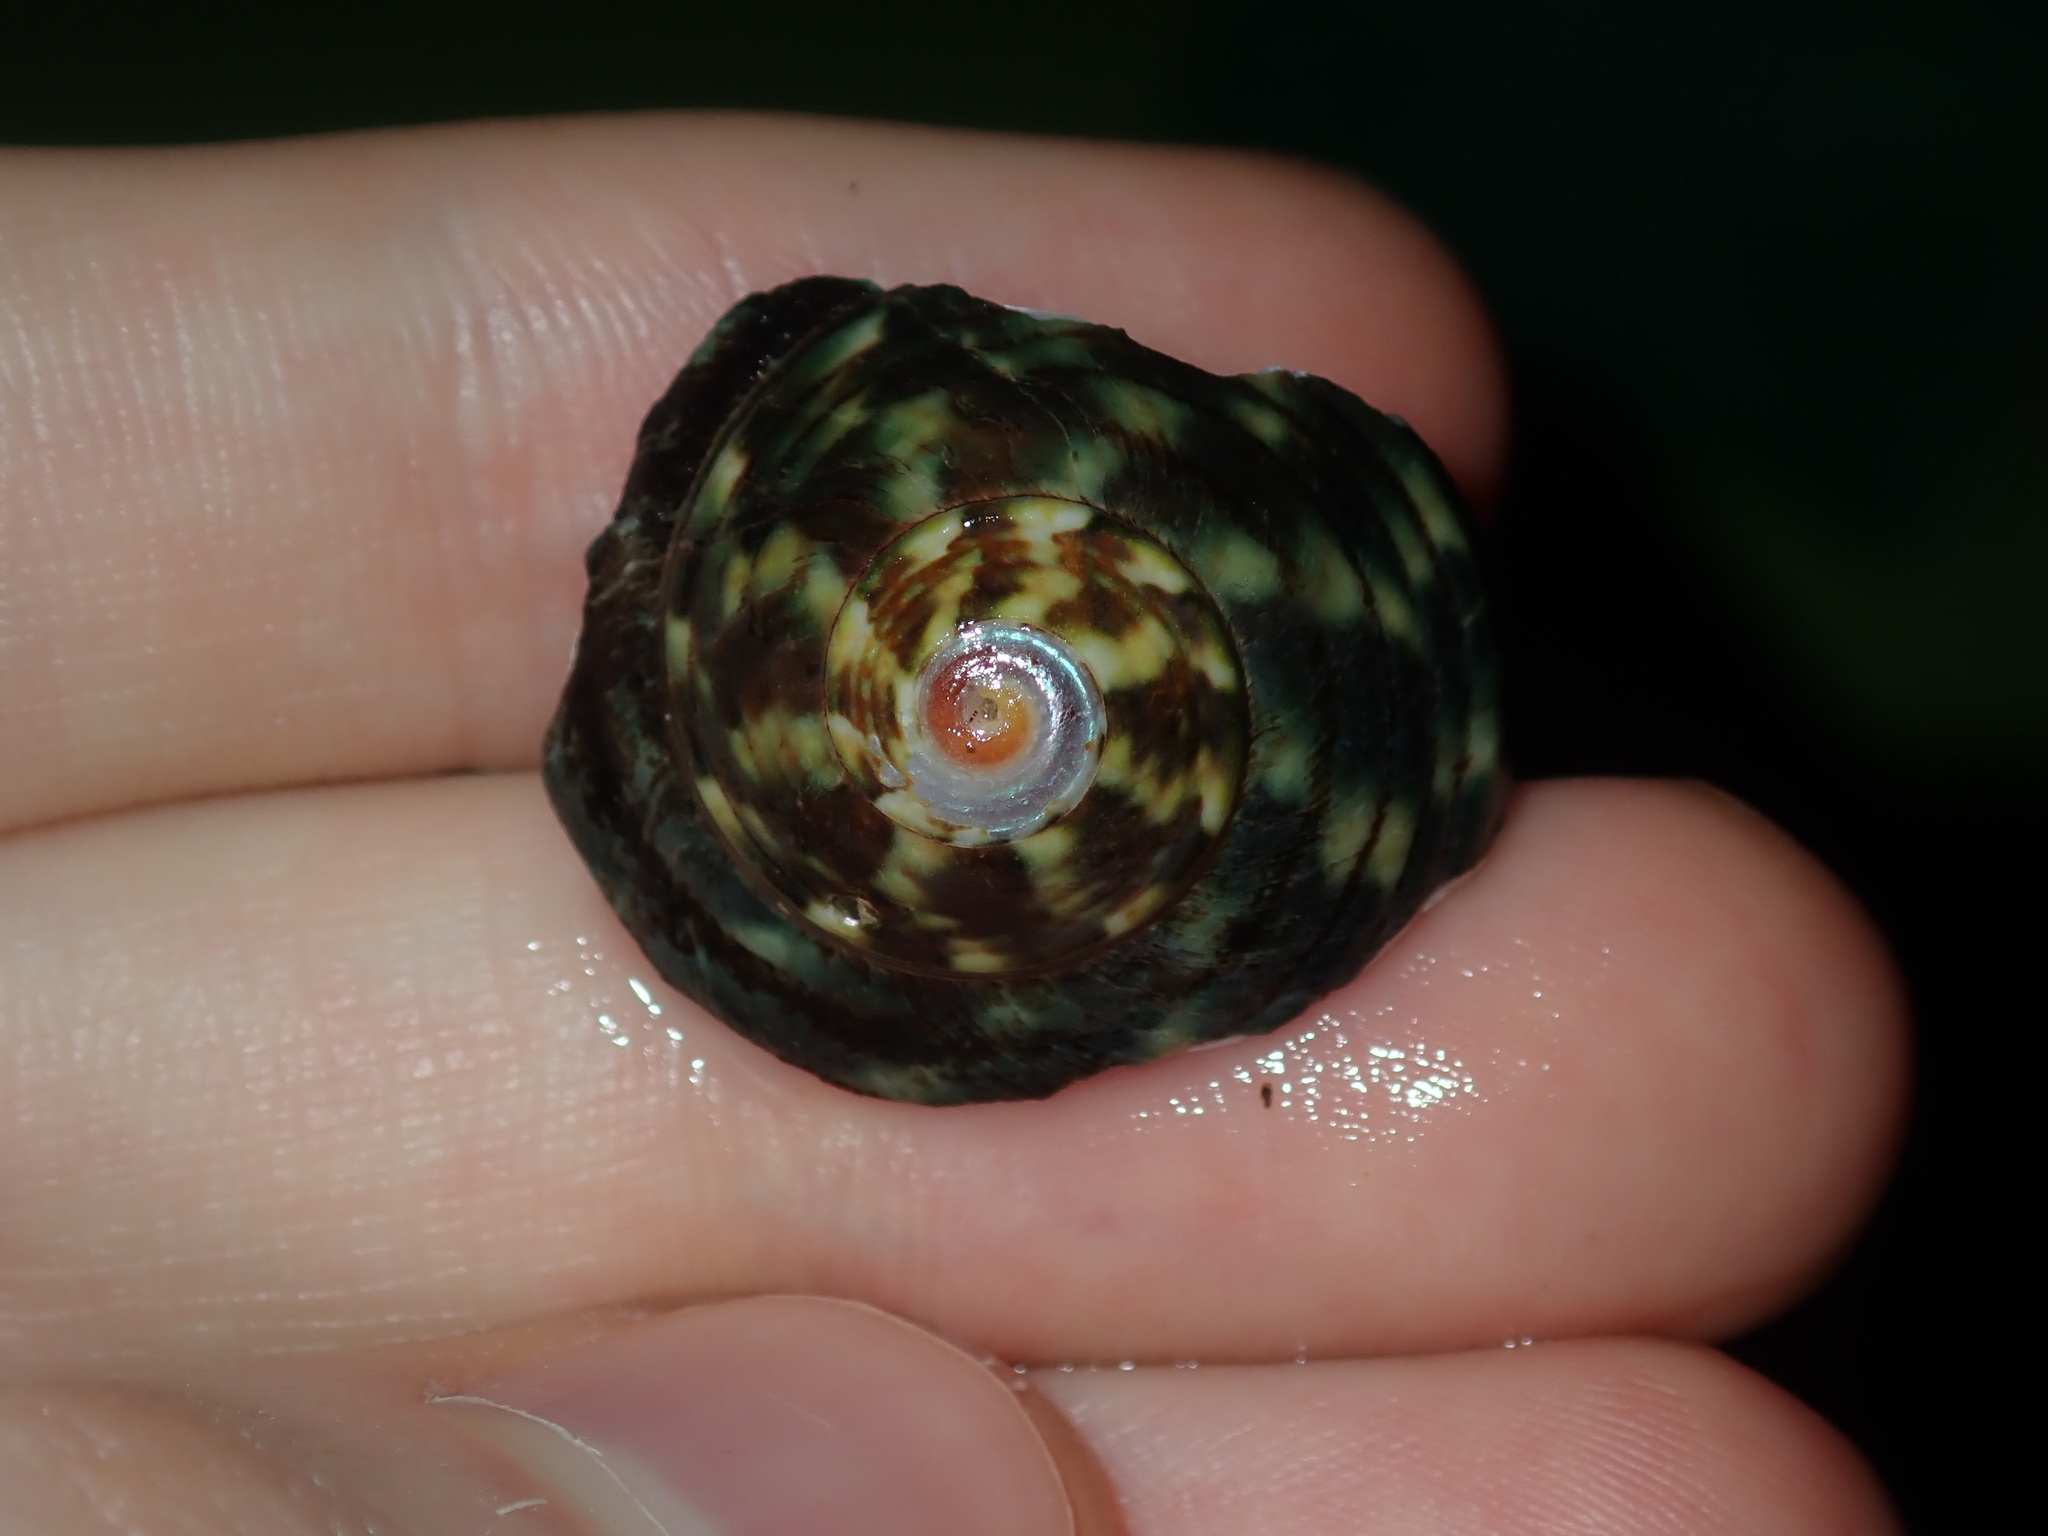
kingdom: Animalia
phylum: Mollusca
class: Gastropoda
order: Trochida
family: Turbinidae
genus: Lunella
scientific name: Lunella undulata
